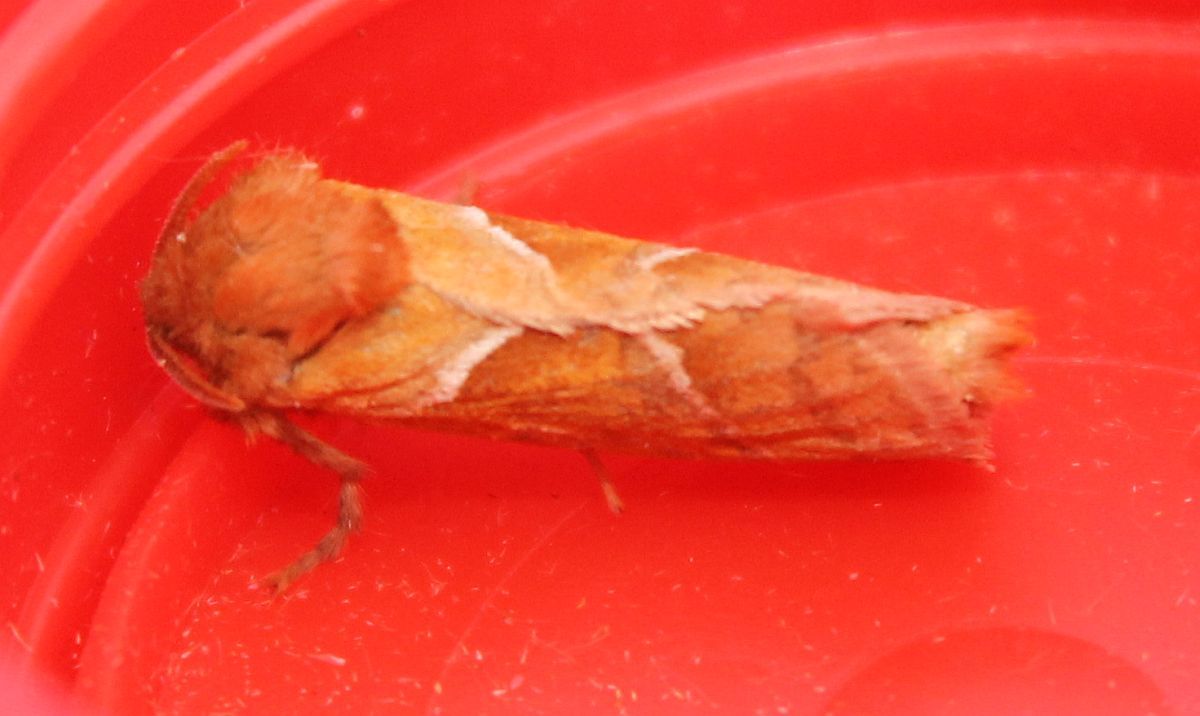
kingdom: Animalia
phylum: Arthropoda
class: Insecta
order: Lepidoptera
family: Hepialidae
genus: Triodia
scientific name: Triodia sylvina
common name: Orange swift
